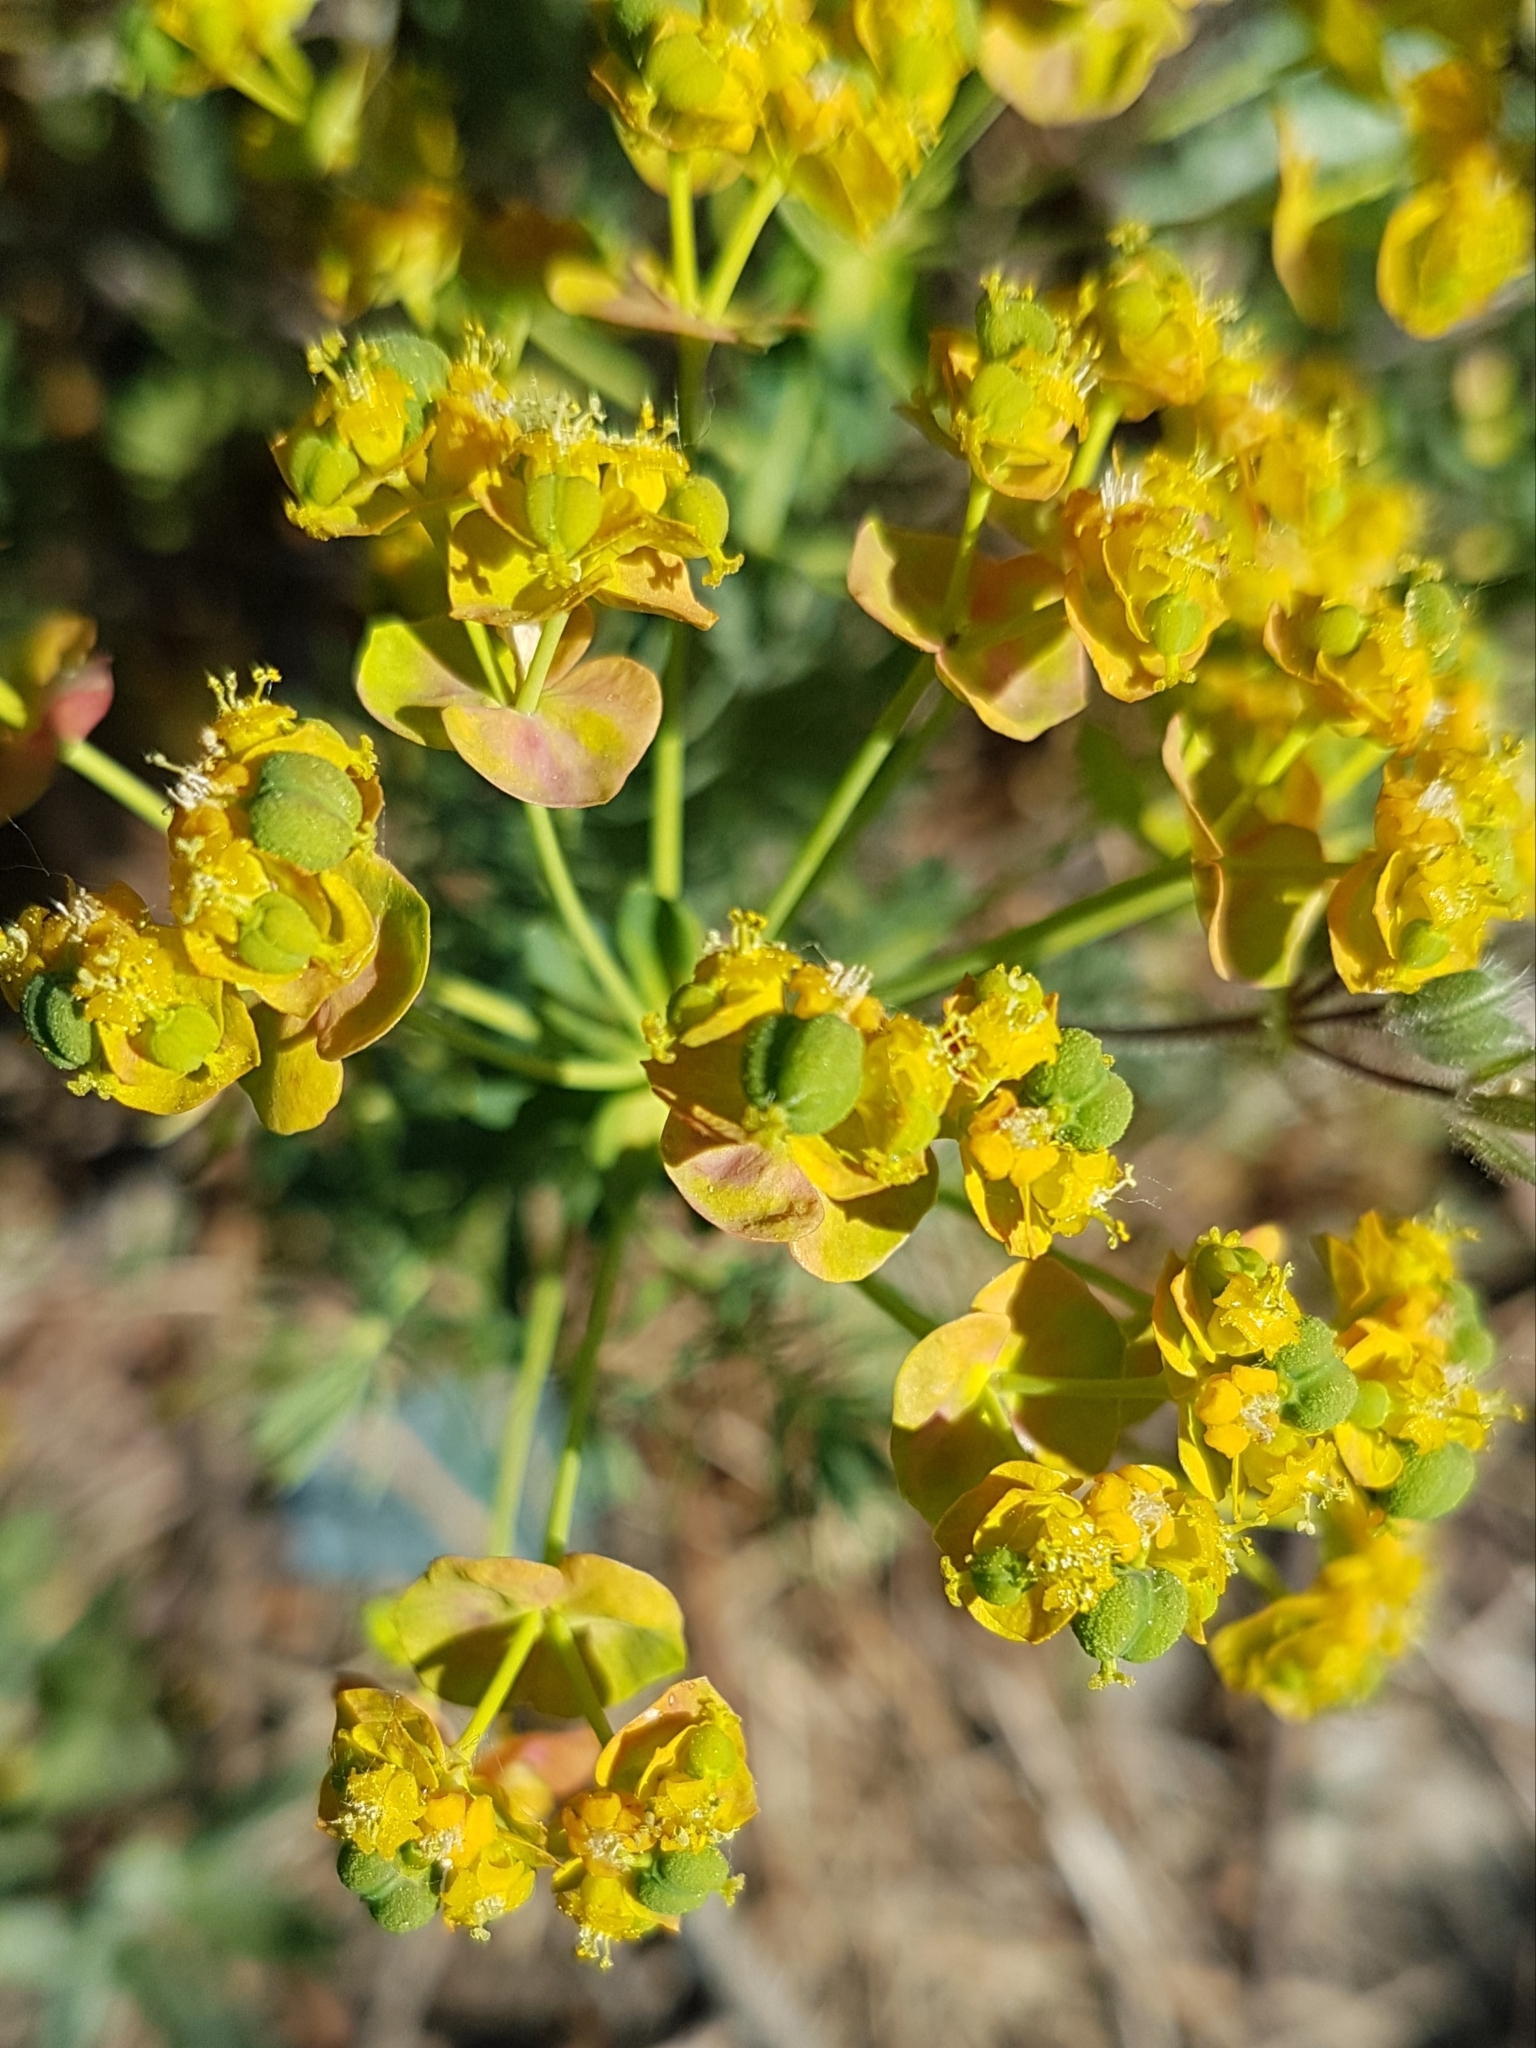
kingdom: Plantae
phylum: Tracheophyta
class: Magnoliopsida
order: Malpighiales
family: Euphorbiaceae
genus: Euphorbia
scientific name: Euphorbia cyparissias
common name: Cypress spurge
